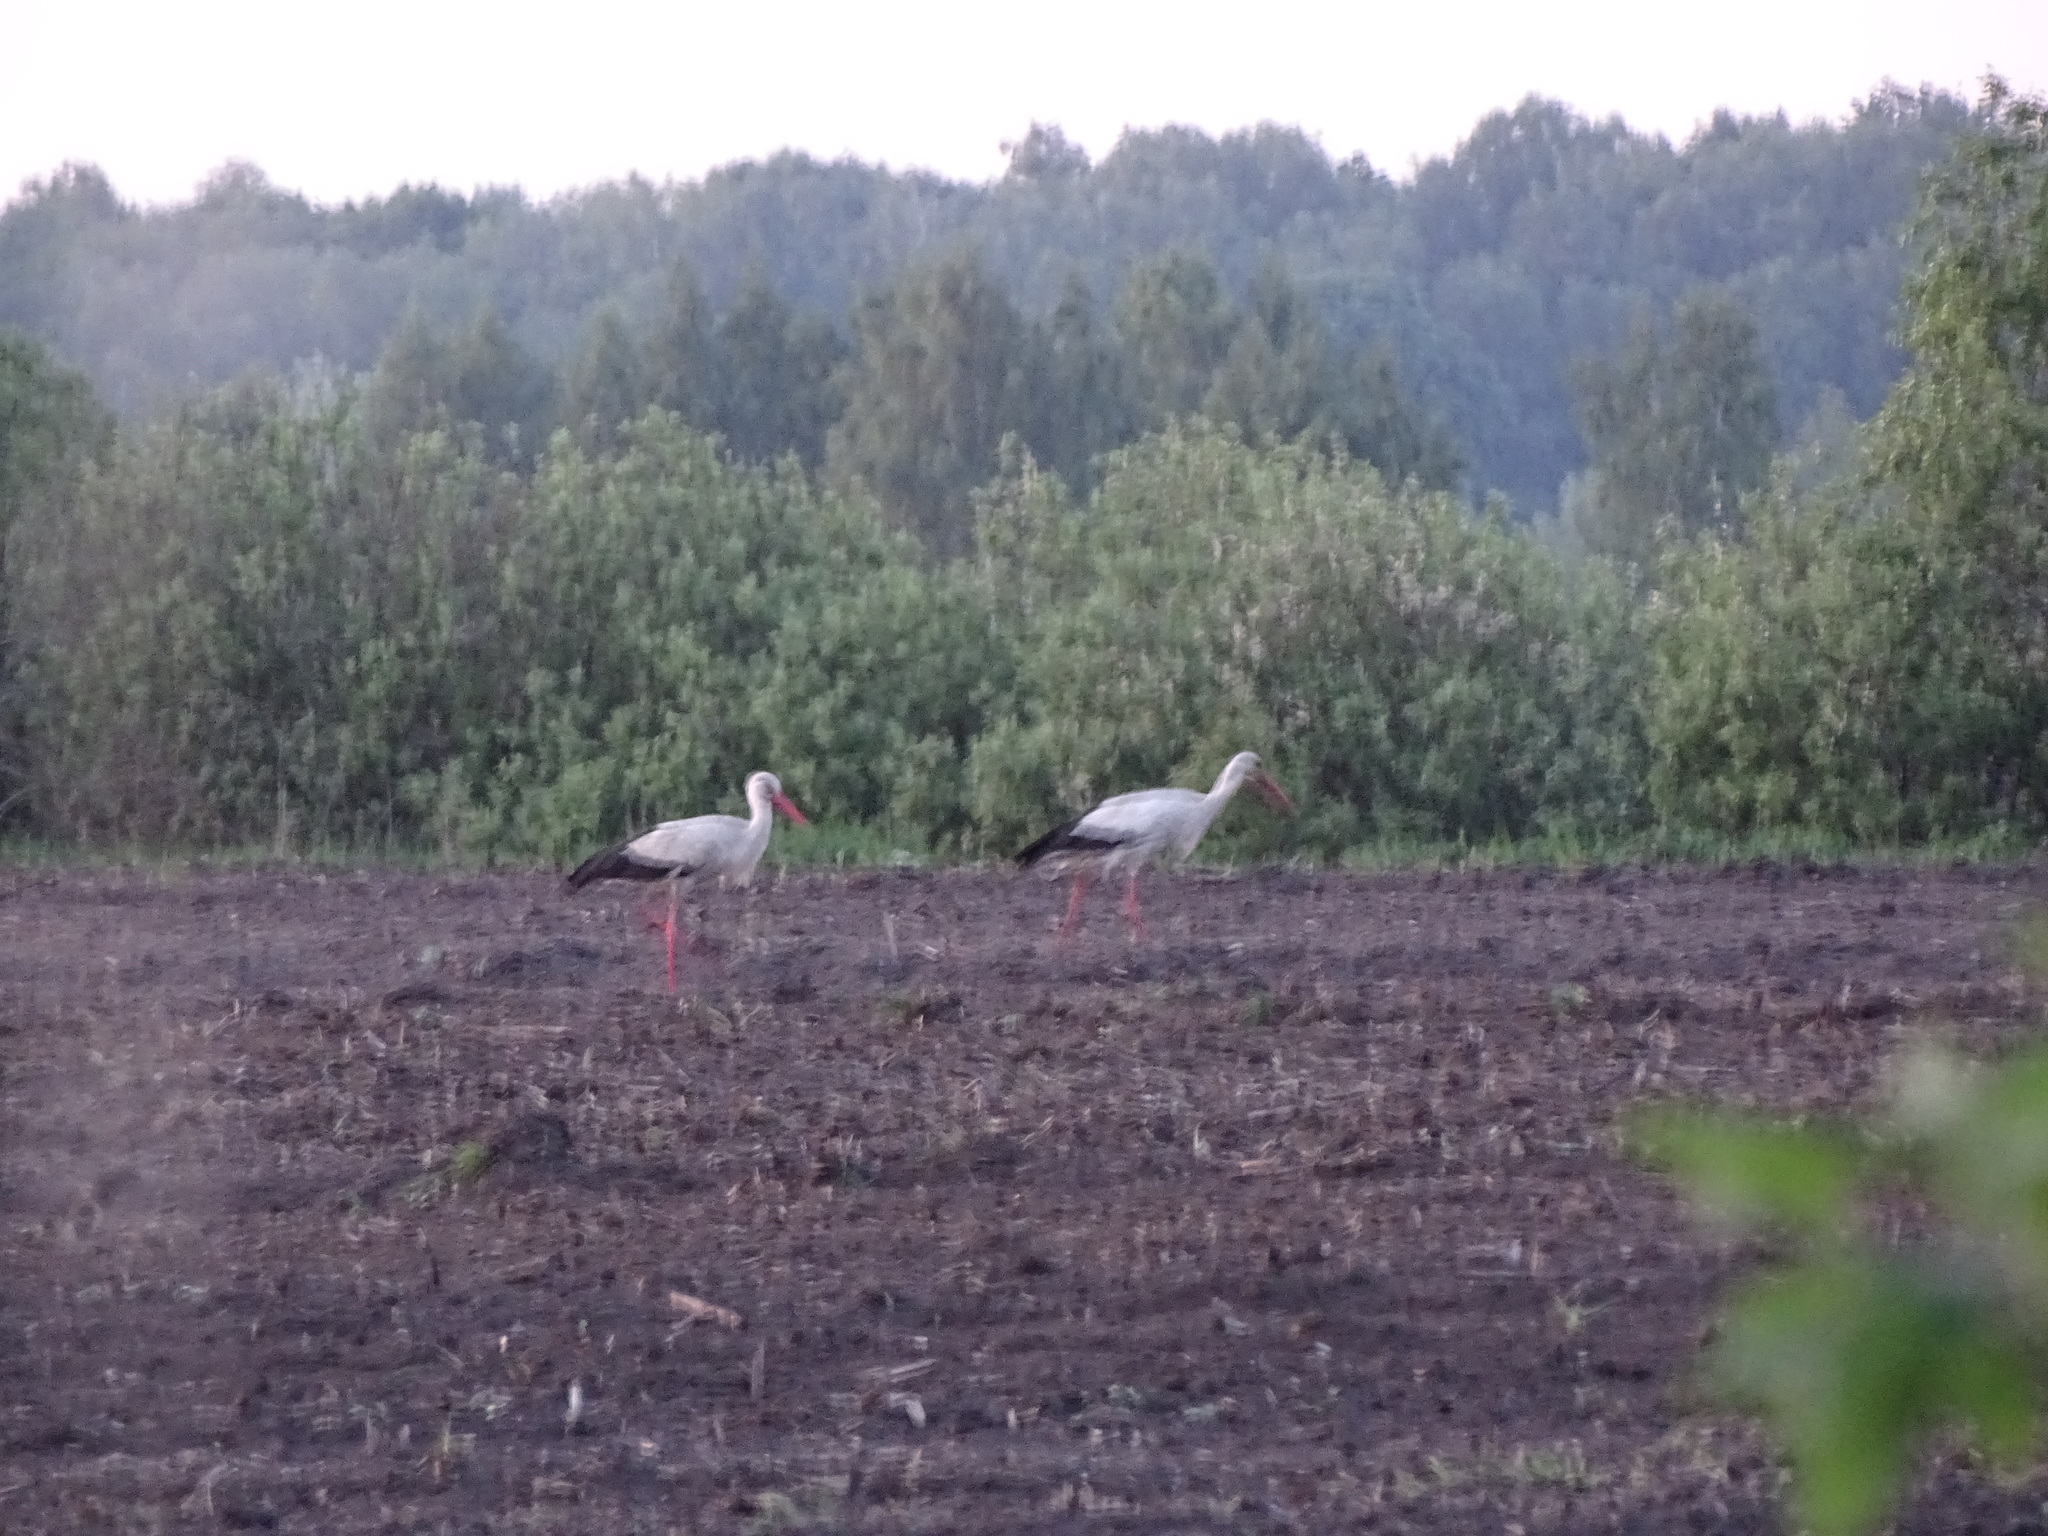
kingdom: Animalia
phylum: Chordata
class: Aves
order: Ciconiiformes
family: Ciconiidae
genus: Ciconia
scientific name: Ciconia ciconia
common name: White stork
